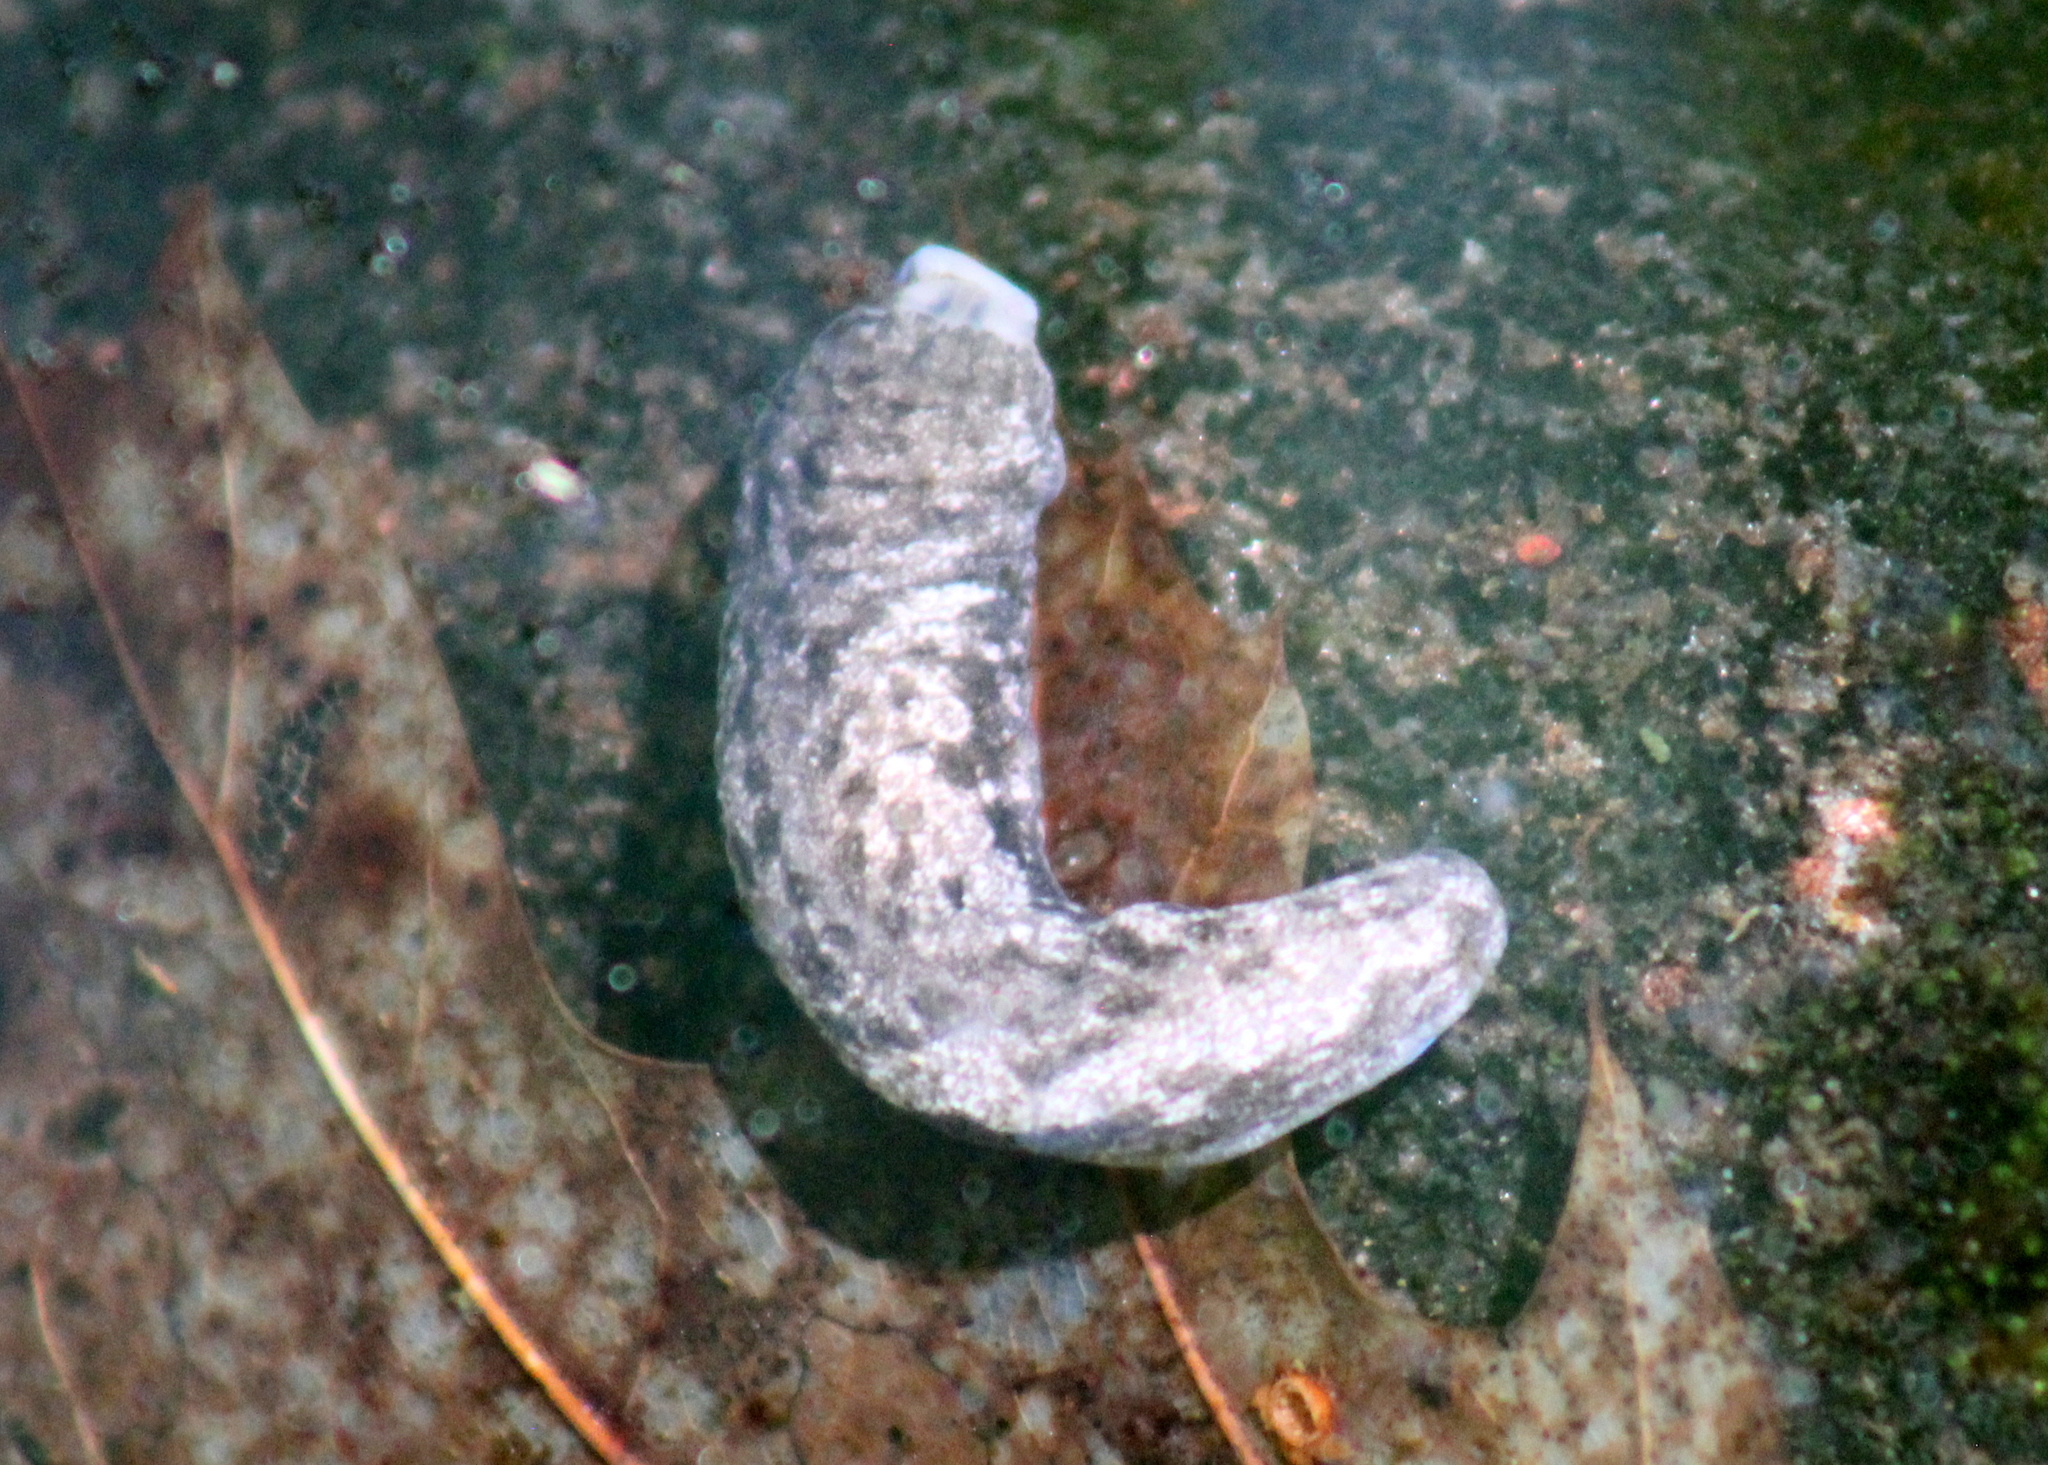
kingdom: Animalia
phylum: Mollusca
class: Gastropoda
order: Stylommatophora
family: Philomycidae
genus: Megapallifera
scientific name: Megapallifera mutabilis
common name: Changeable mantleslug
